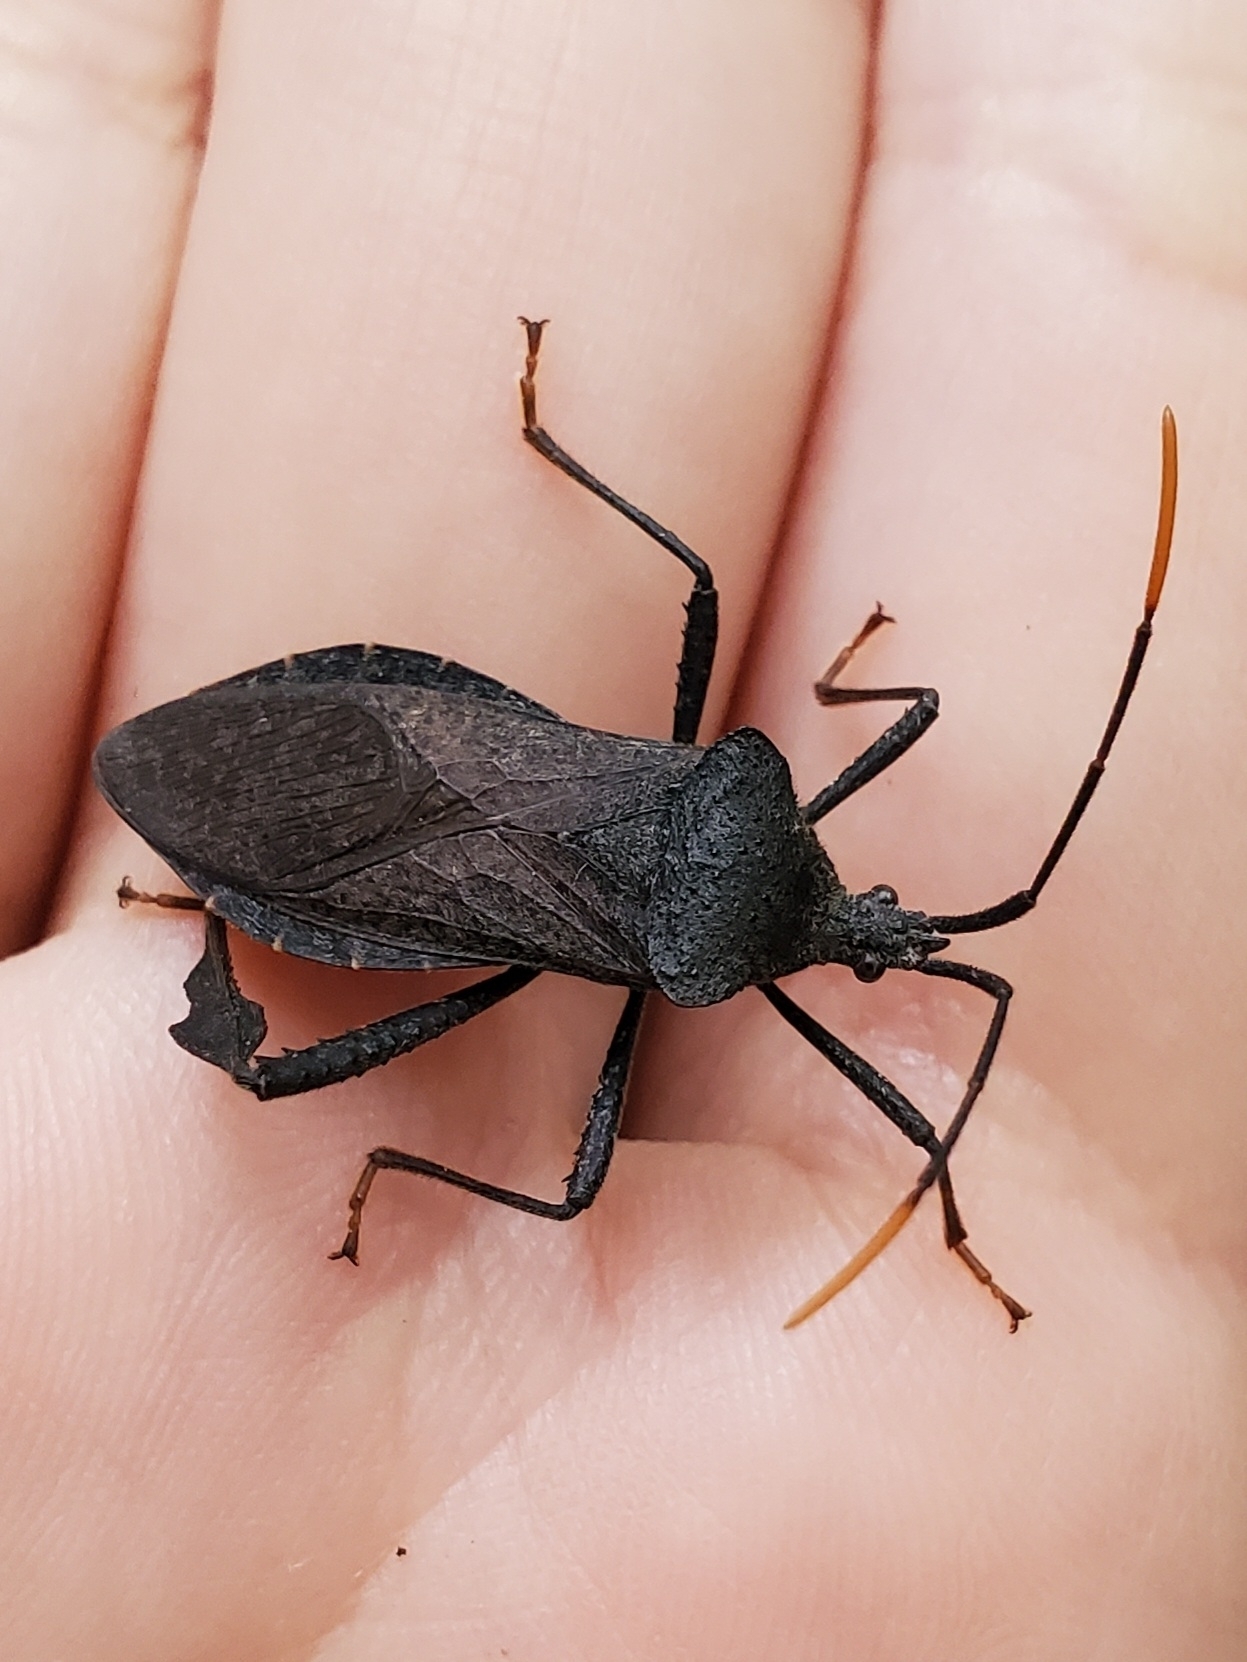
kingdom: Animalia
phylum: Arthropoda
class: Insecta
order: Hemiptera
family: Coreidae
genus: Acanthocephala
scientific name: Acanthocephala terminalis
